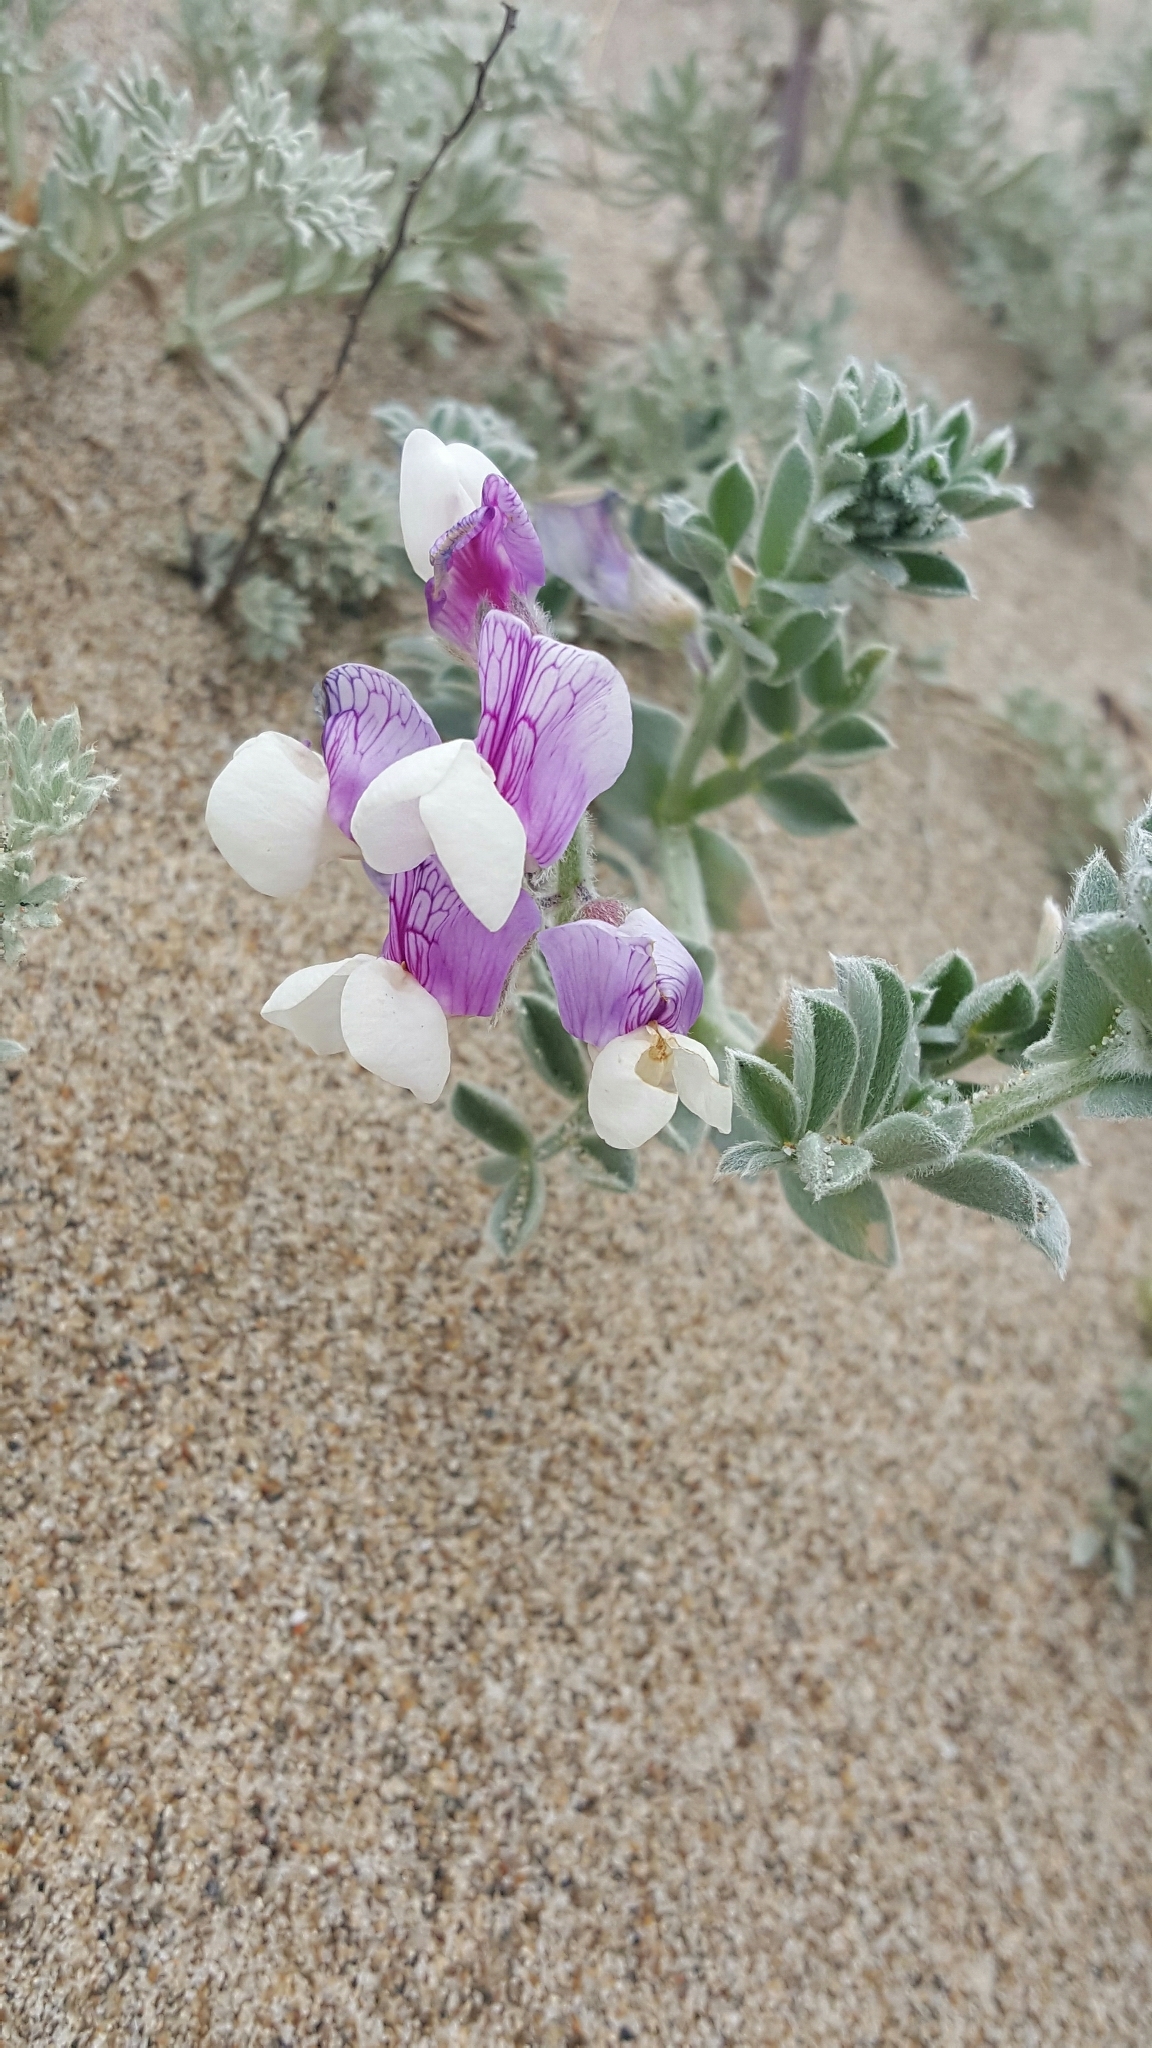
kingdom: Plantae
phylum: Tracheophyta
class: Magnoliopsida
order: Fabales
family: Fabaceae
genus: Lathyrus
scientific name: Lathyrus littoralis
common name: Dune sweet pea
